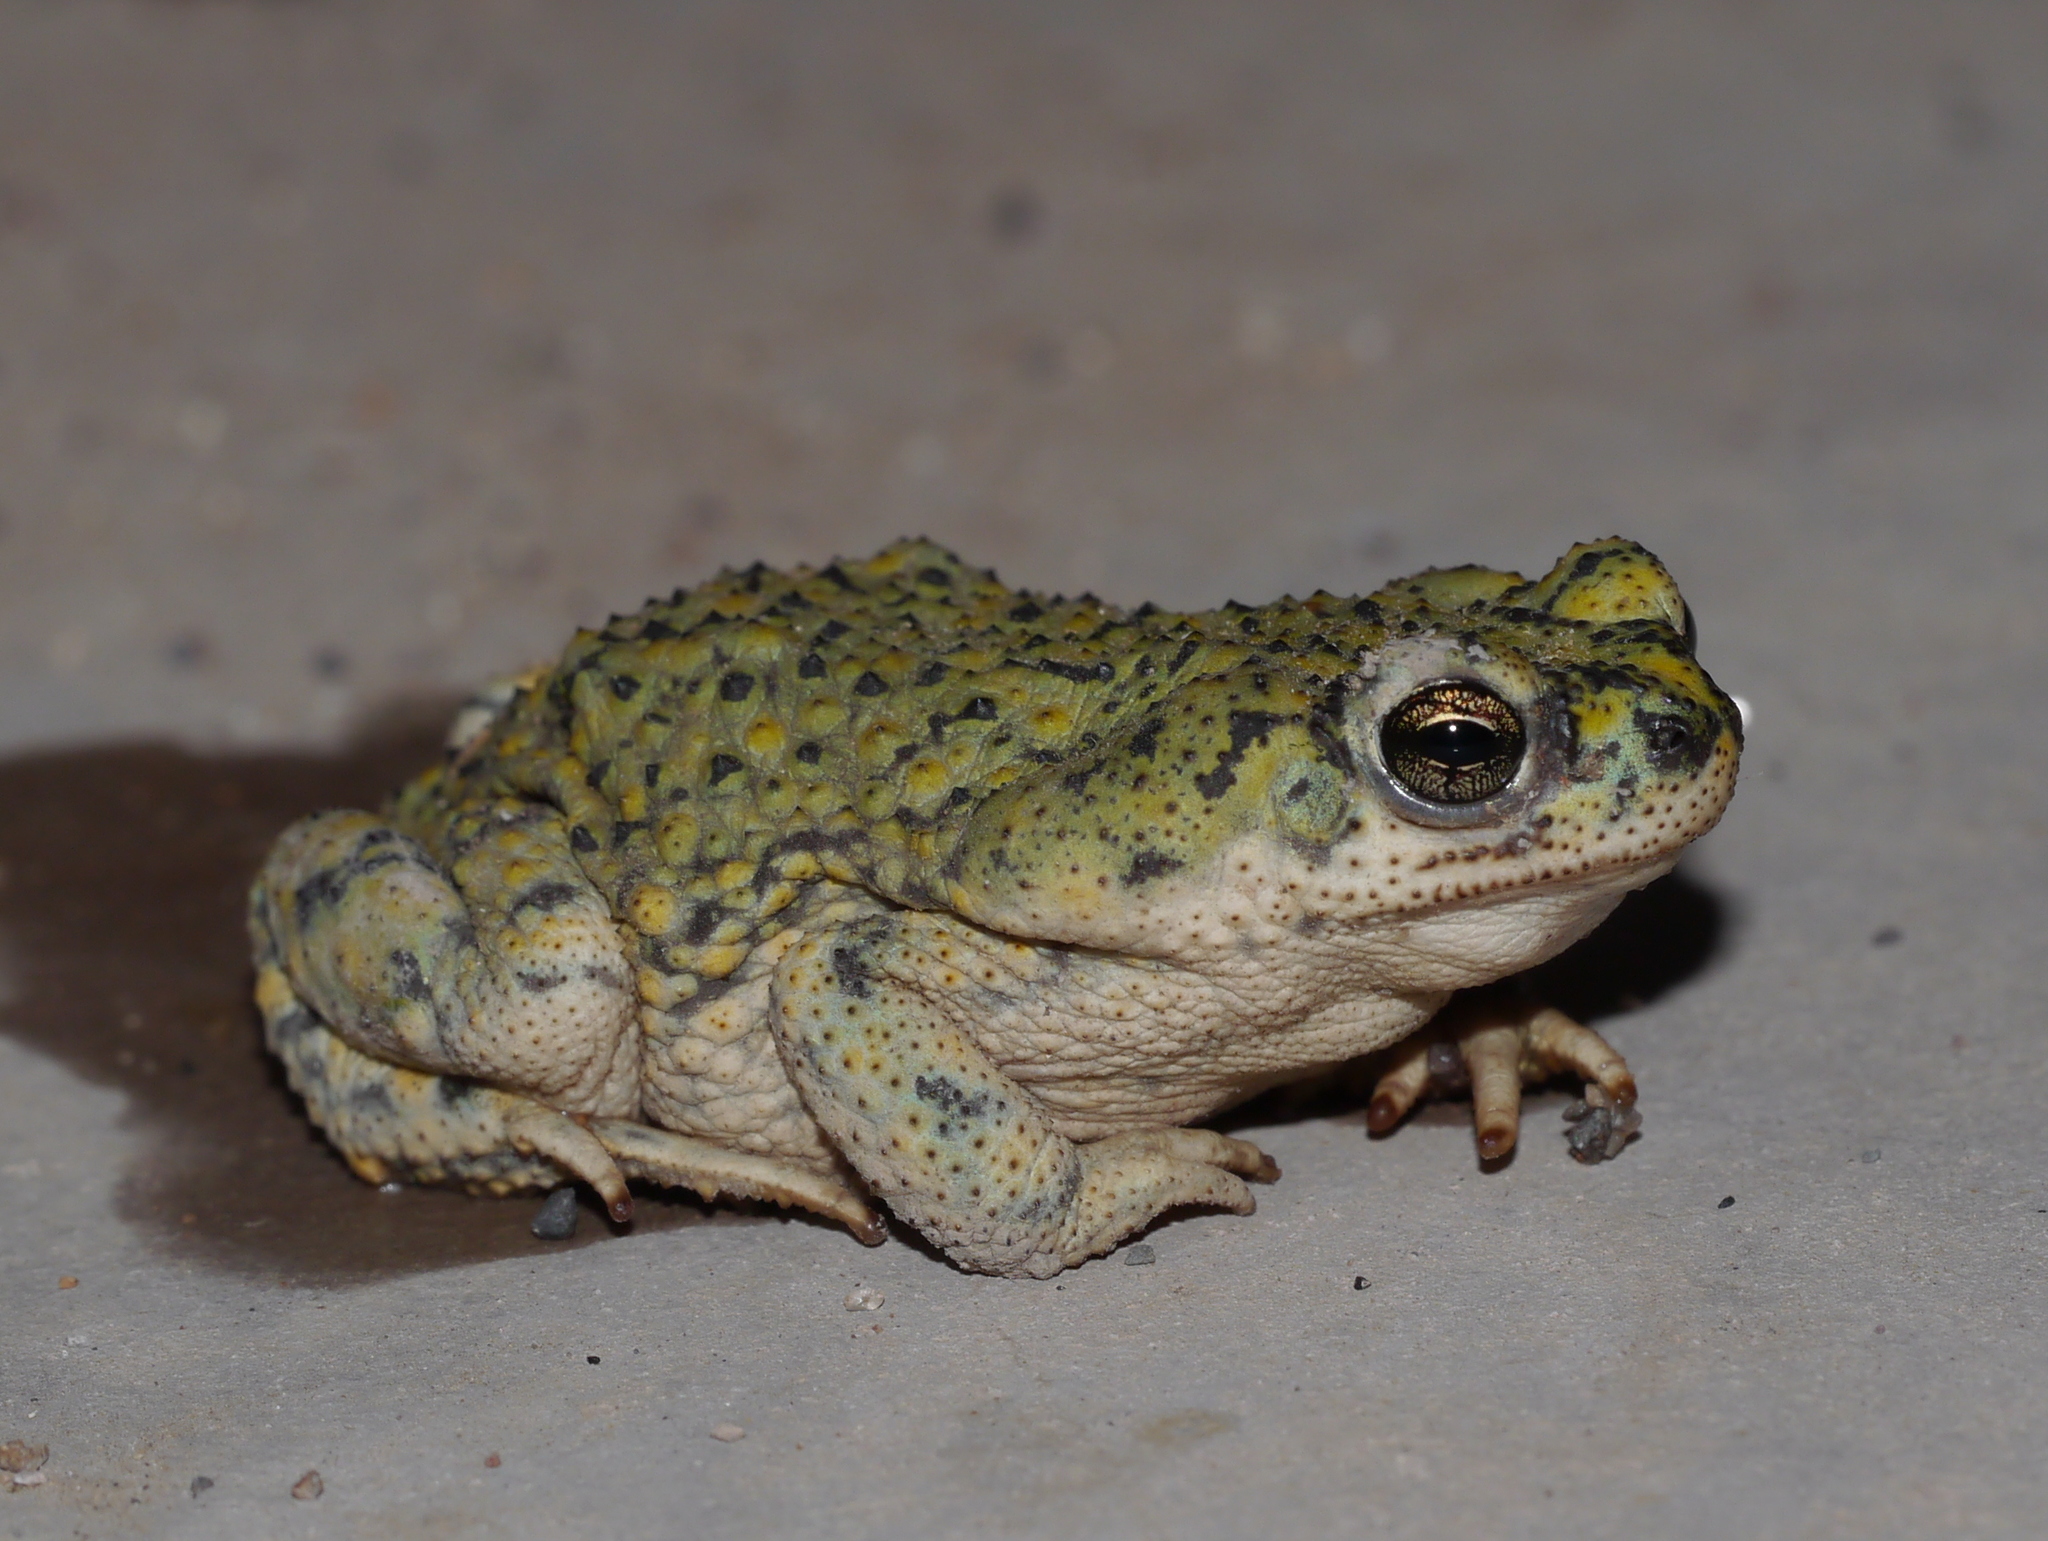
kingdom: Animalia
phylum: Chordata
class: Amphibia
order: Anura
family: Bufonidae
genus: Anaxyrus
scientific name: Anaxyrus debilis
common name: Green toad
